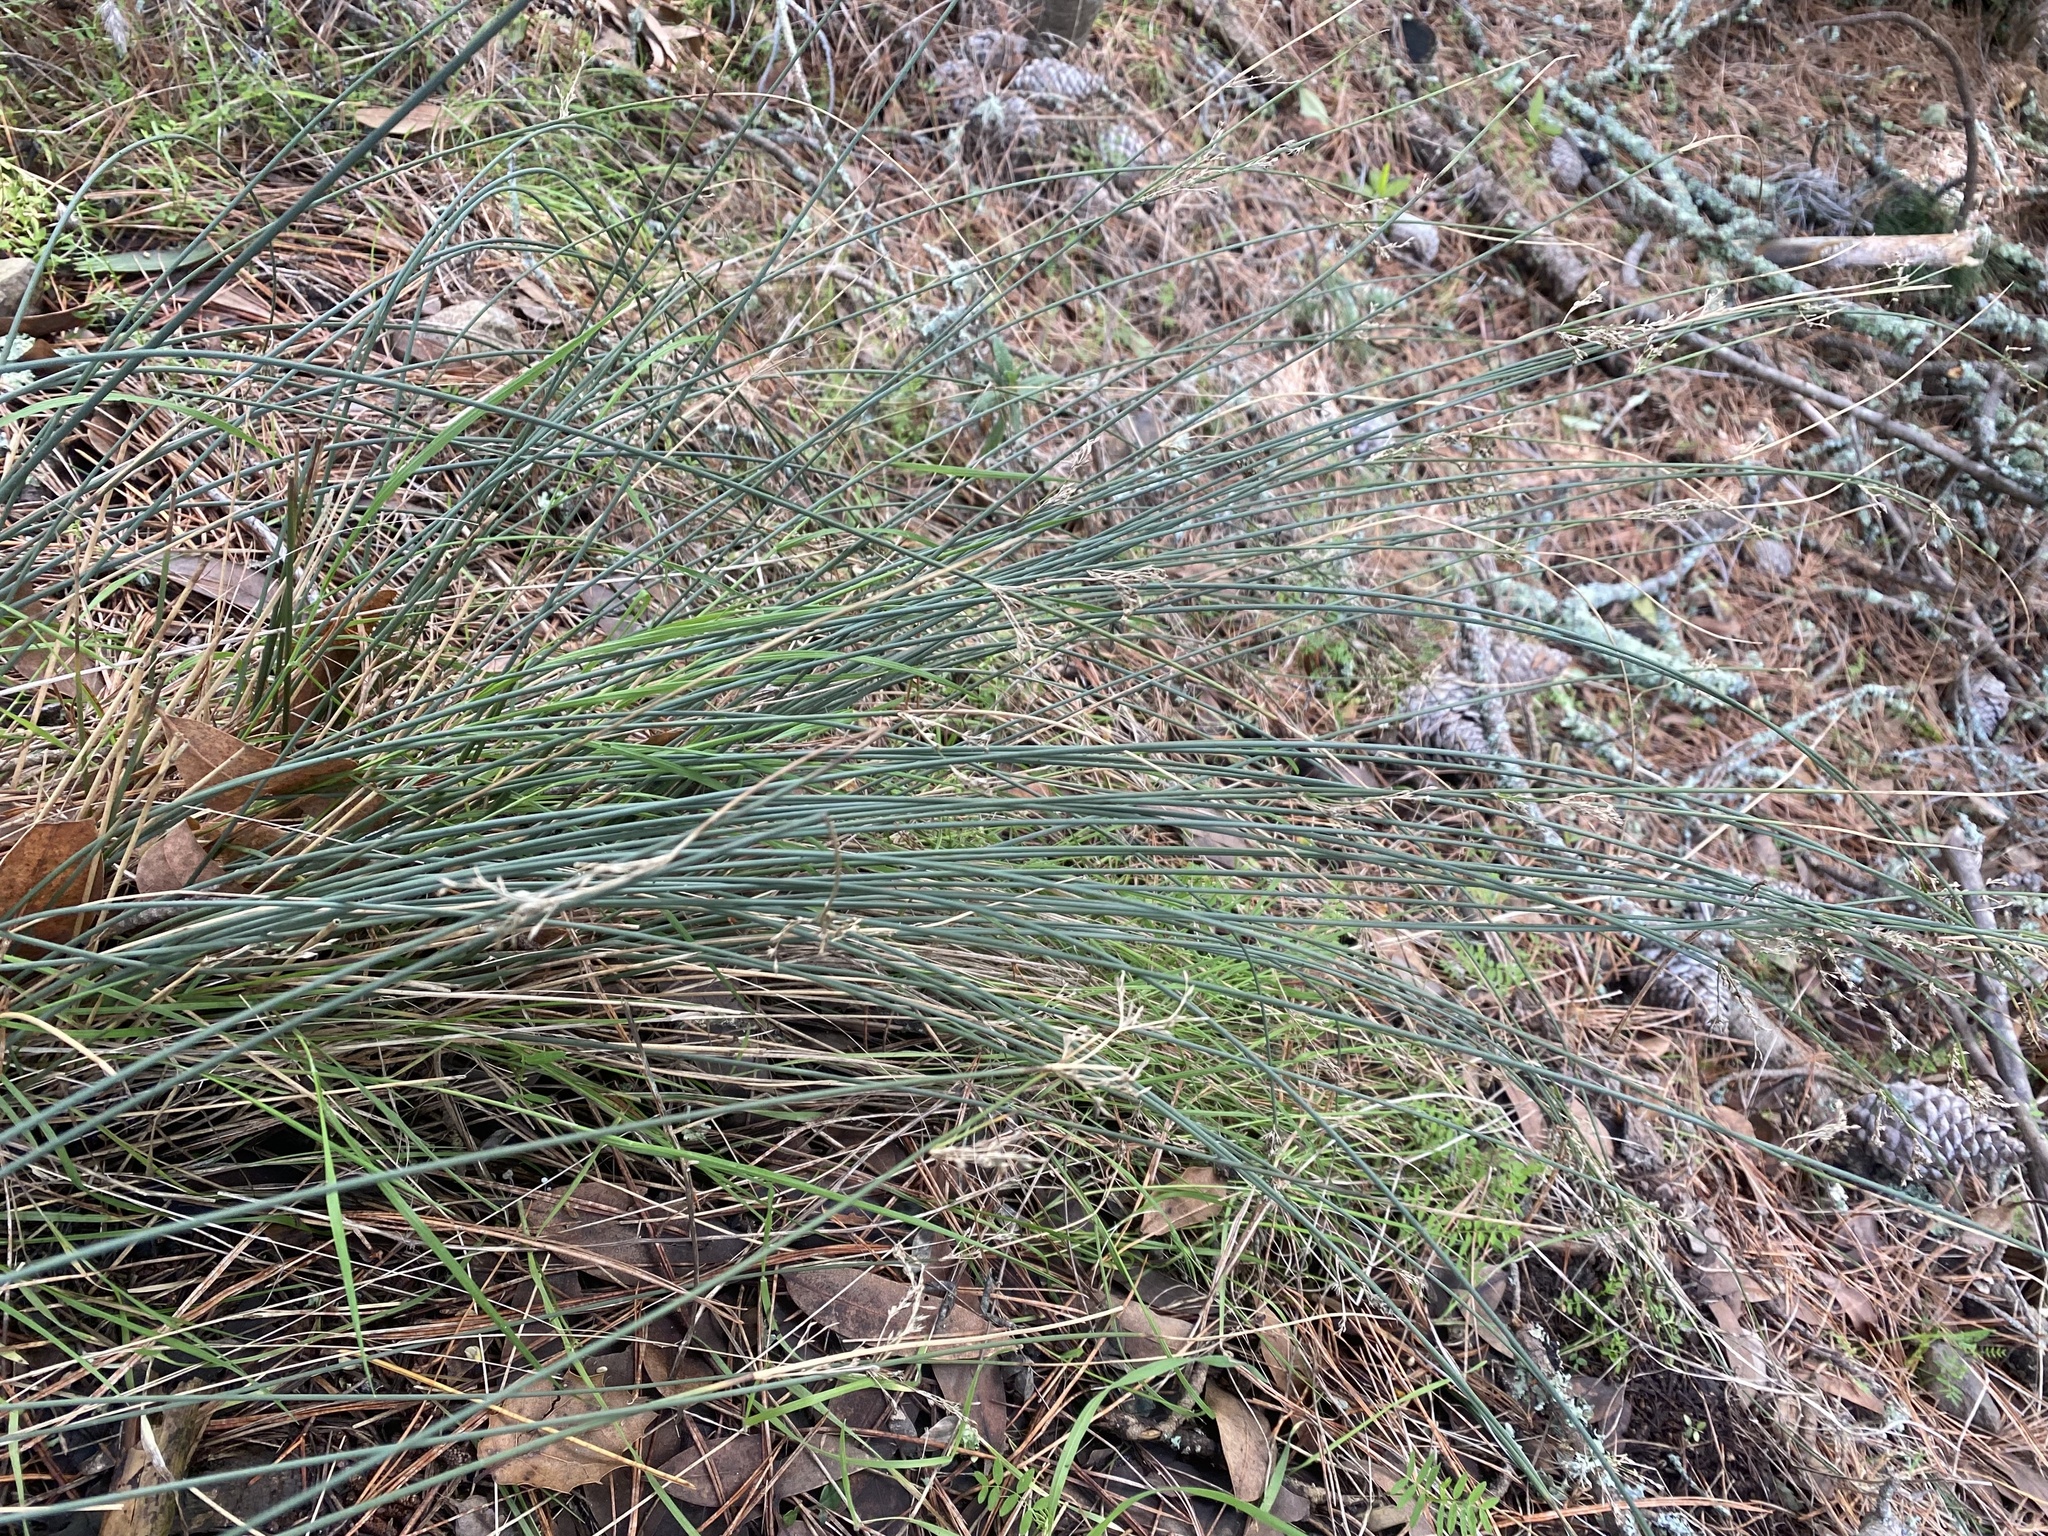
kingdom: Plantae
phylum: Tracheophyta
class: Liliopsida
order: Poales
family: Juncaceae
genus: Juncus
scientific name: Juncus patens
